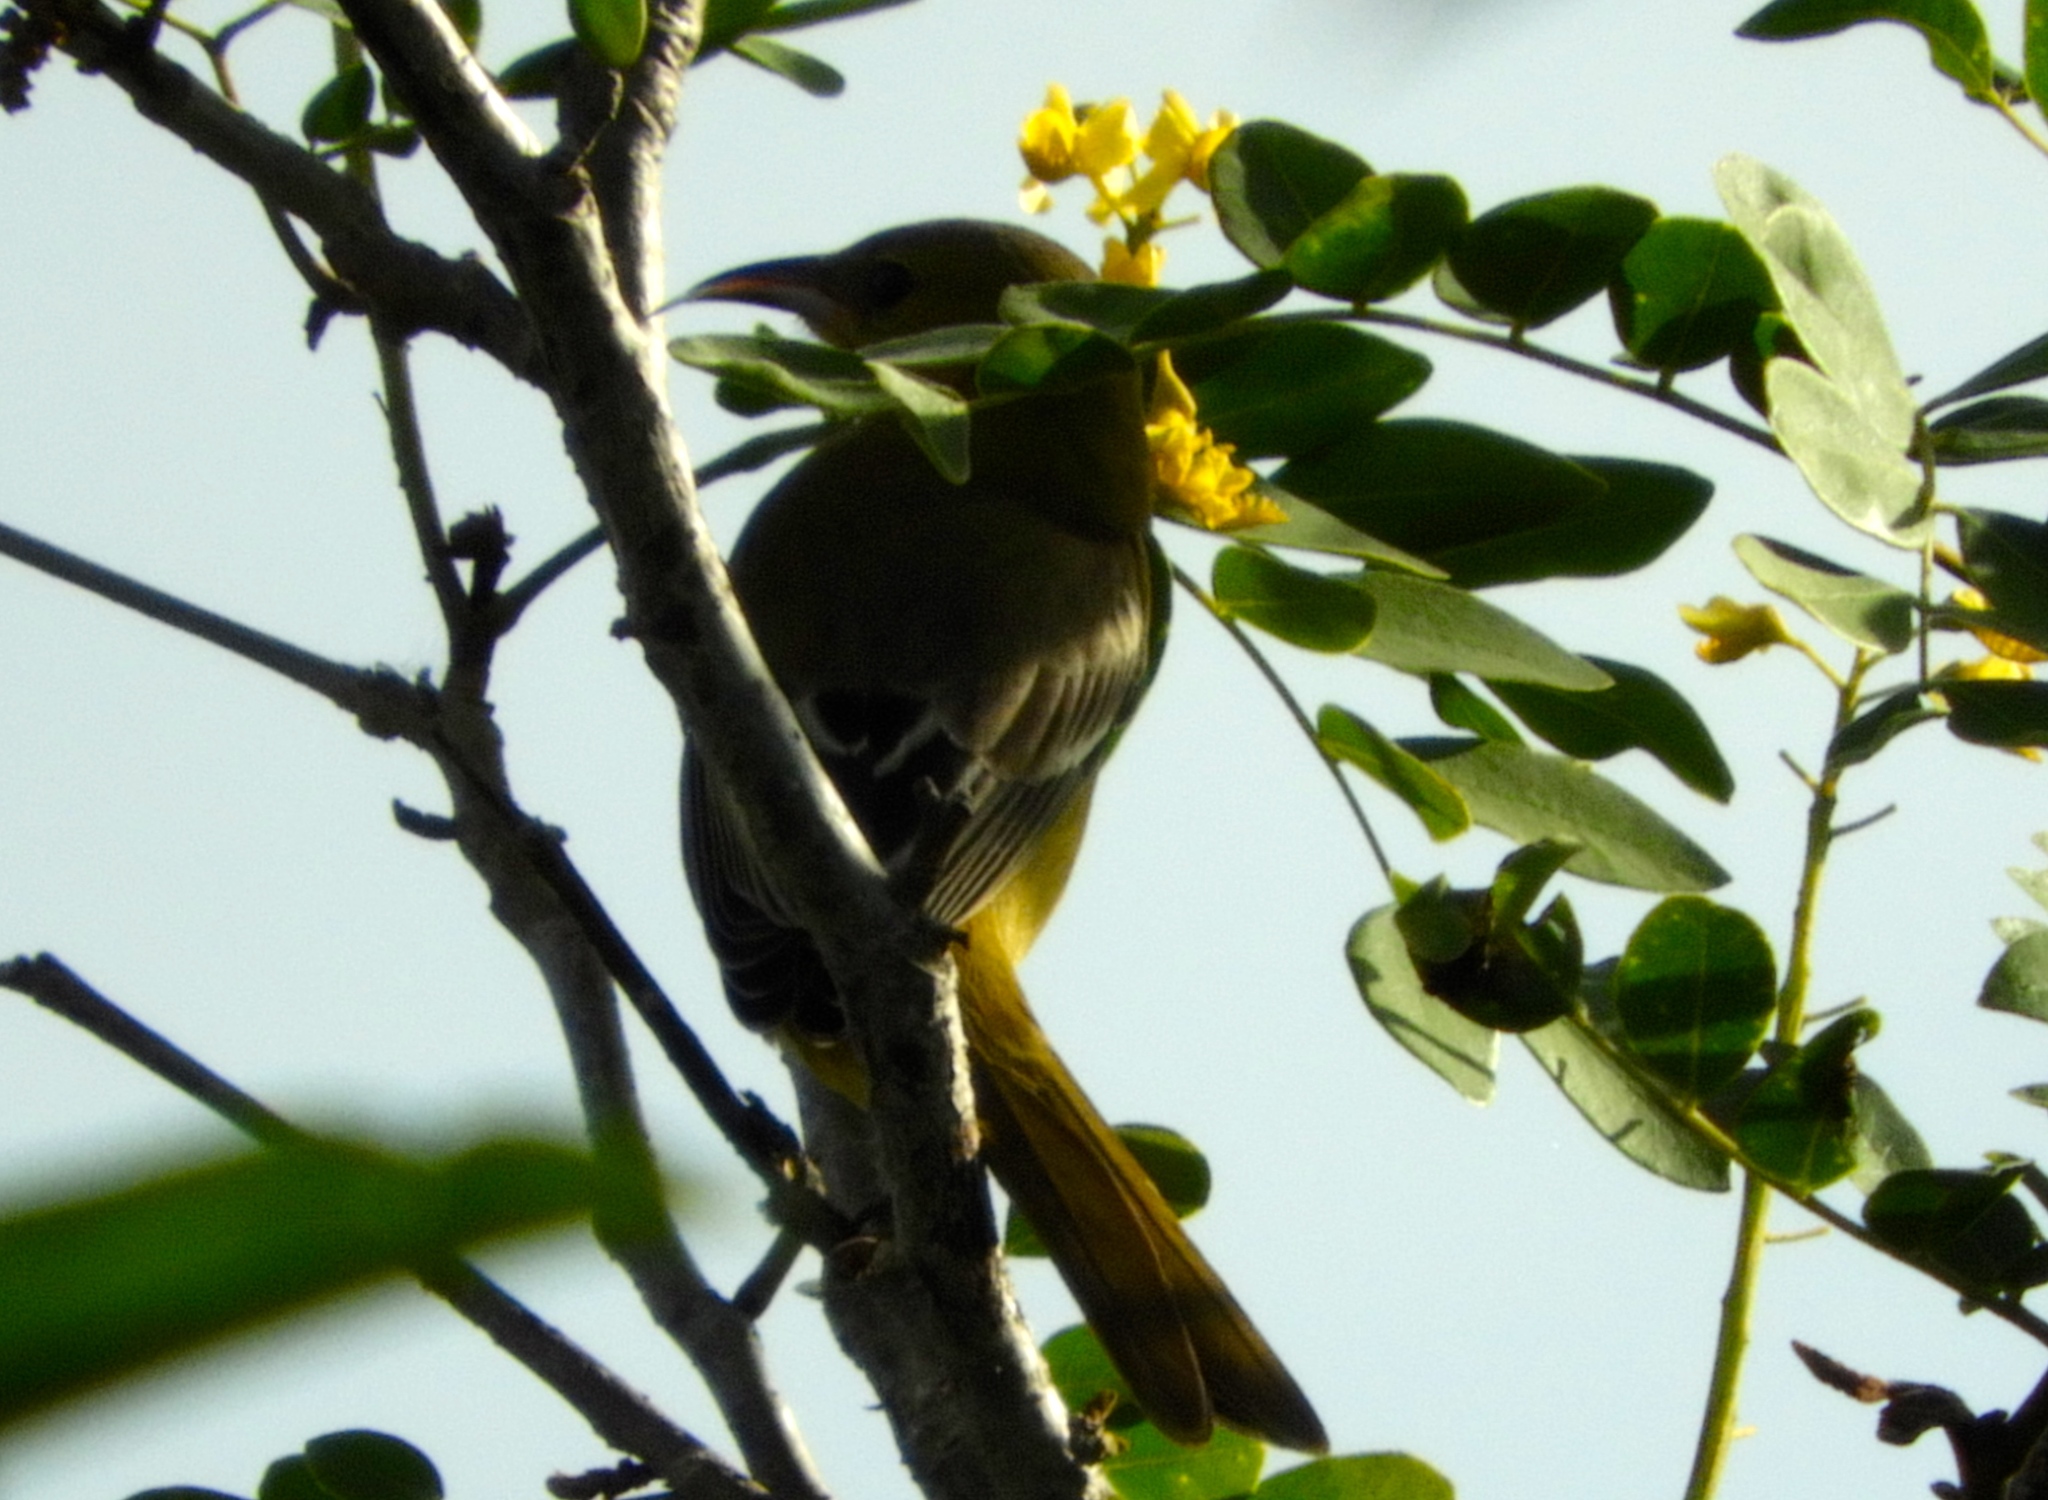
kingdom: Animalia
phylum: Chordata
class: Aves
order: Passeriformes
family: Icteridae
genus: Icterus
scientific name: Icterus
